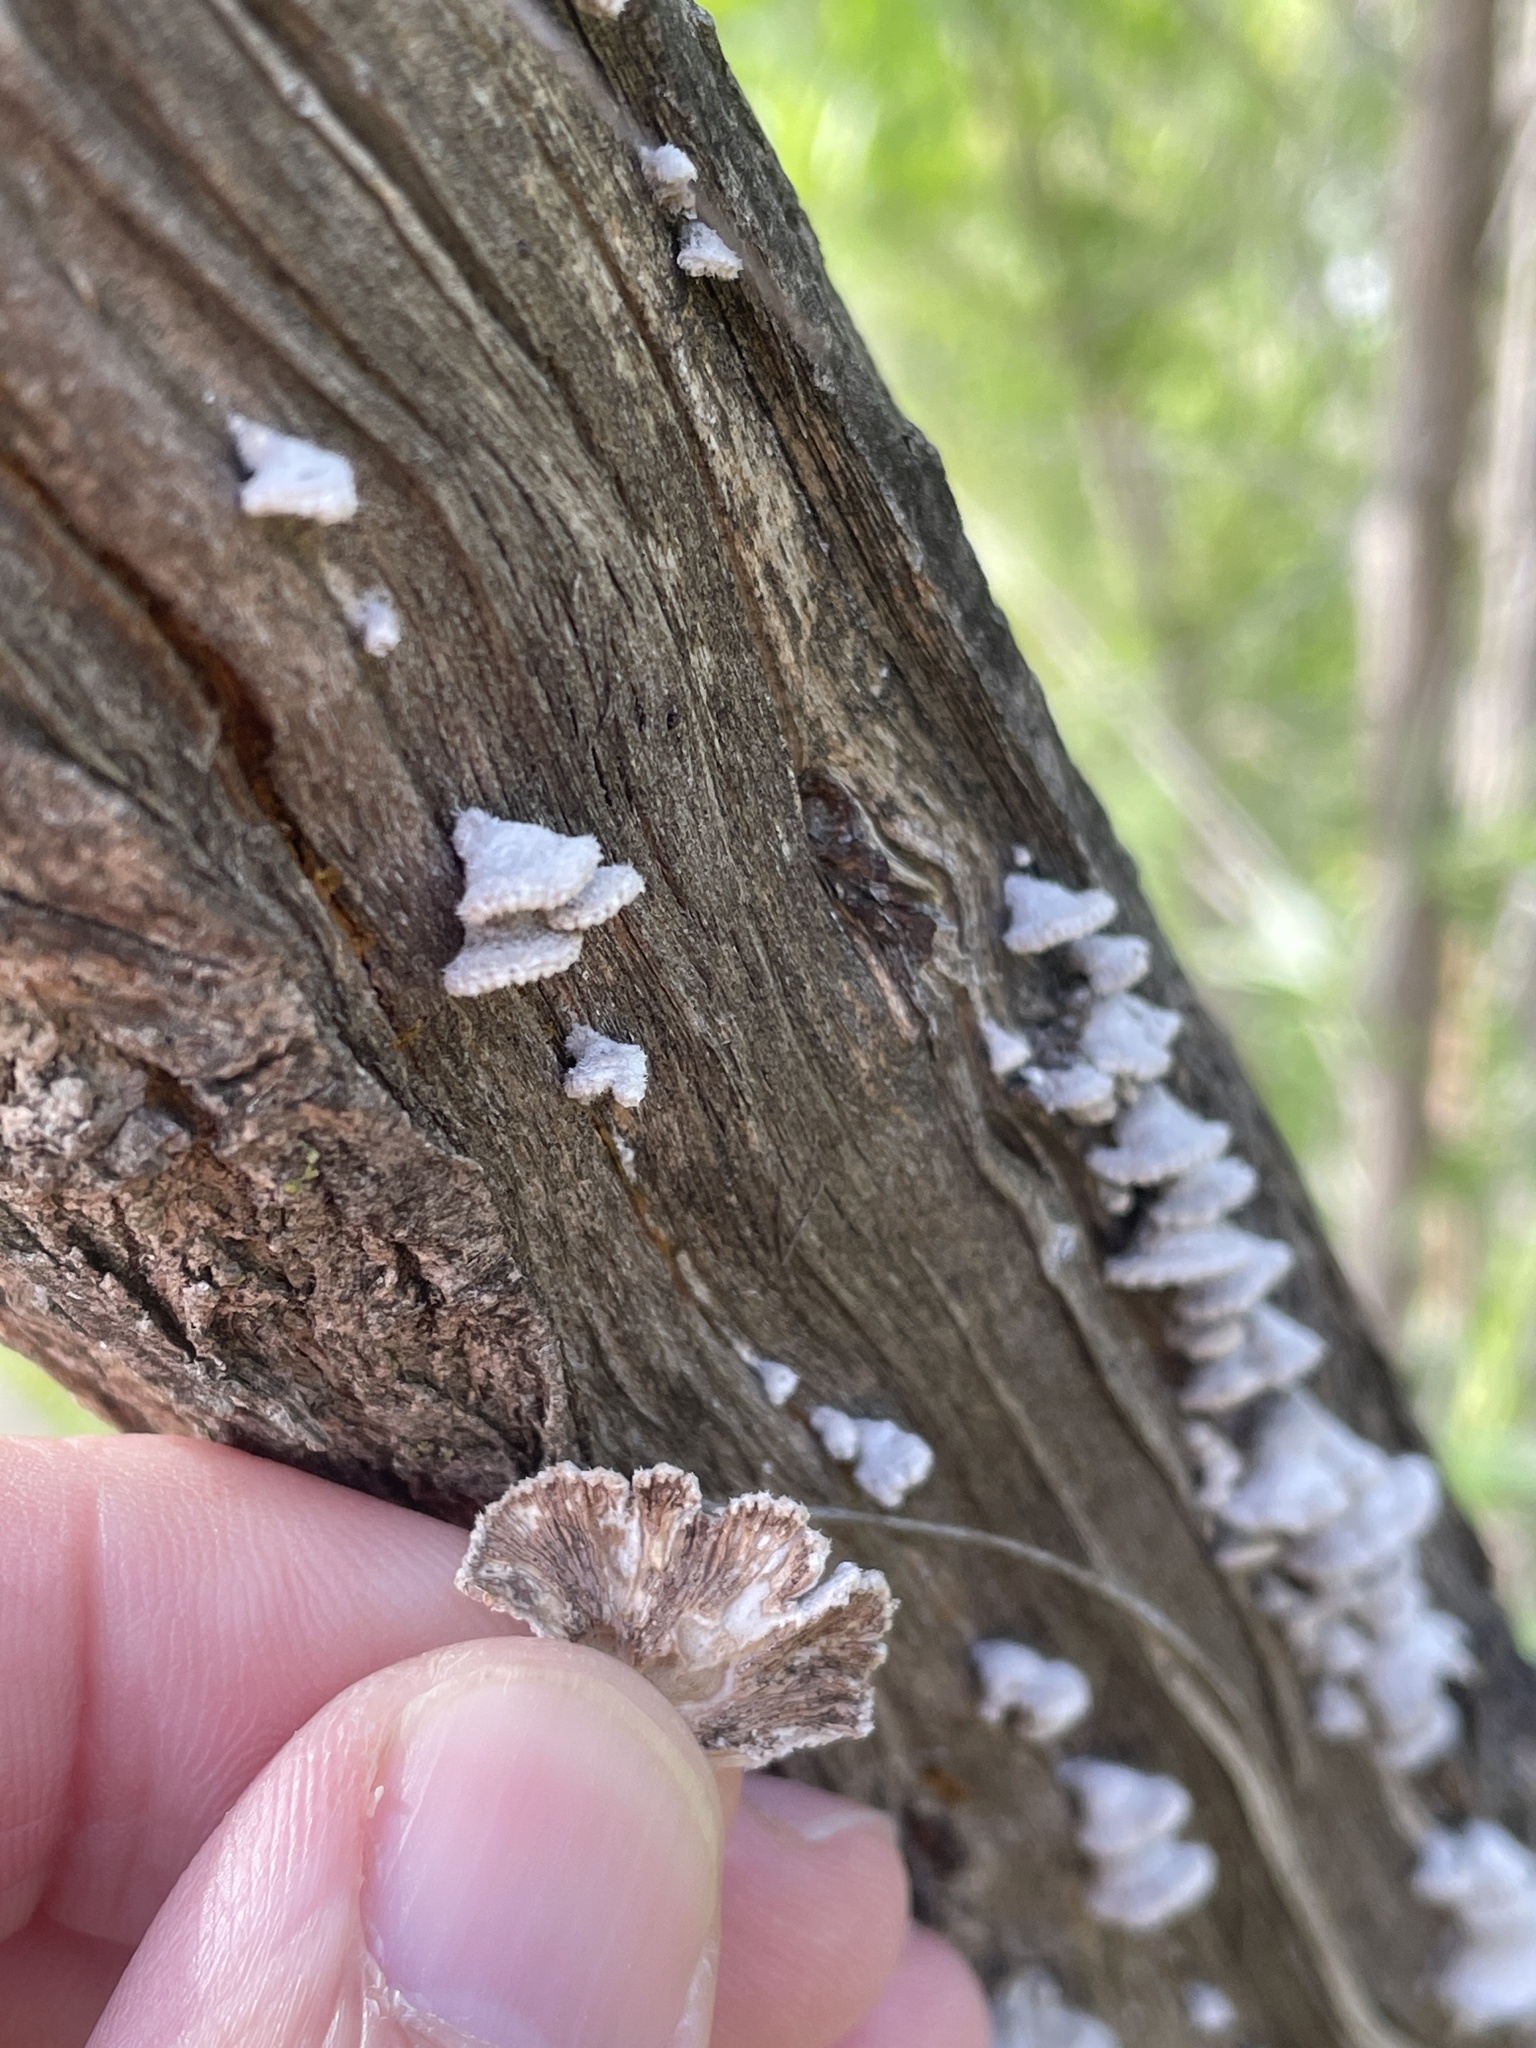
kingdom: Fungi
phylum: Basidiomycota
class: Agaricomycetes
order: Agaricales
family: Schizophyllaceae
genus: Schizophyllum
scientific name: Schizophyllum commune
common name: Common porecrust
